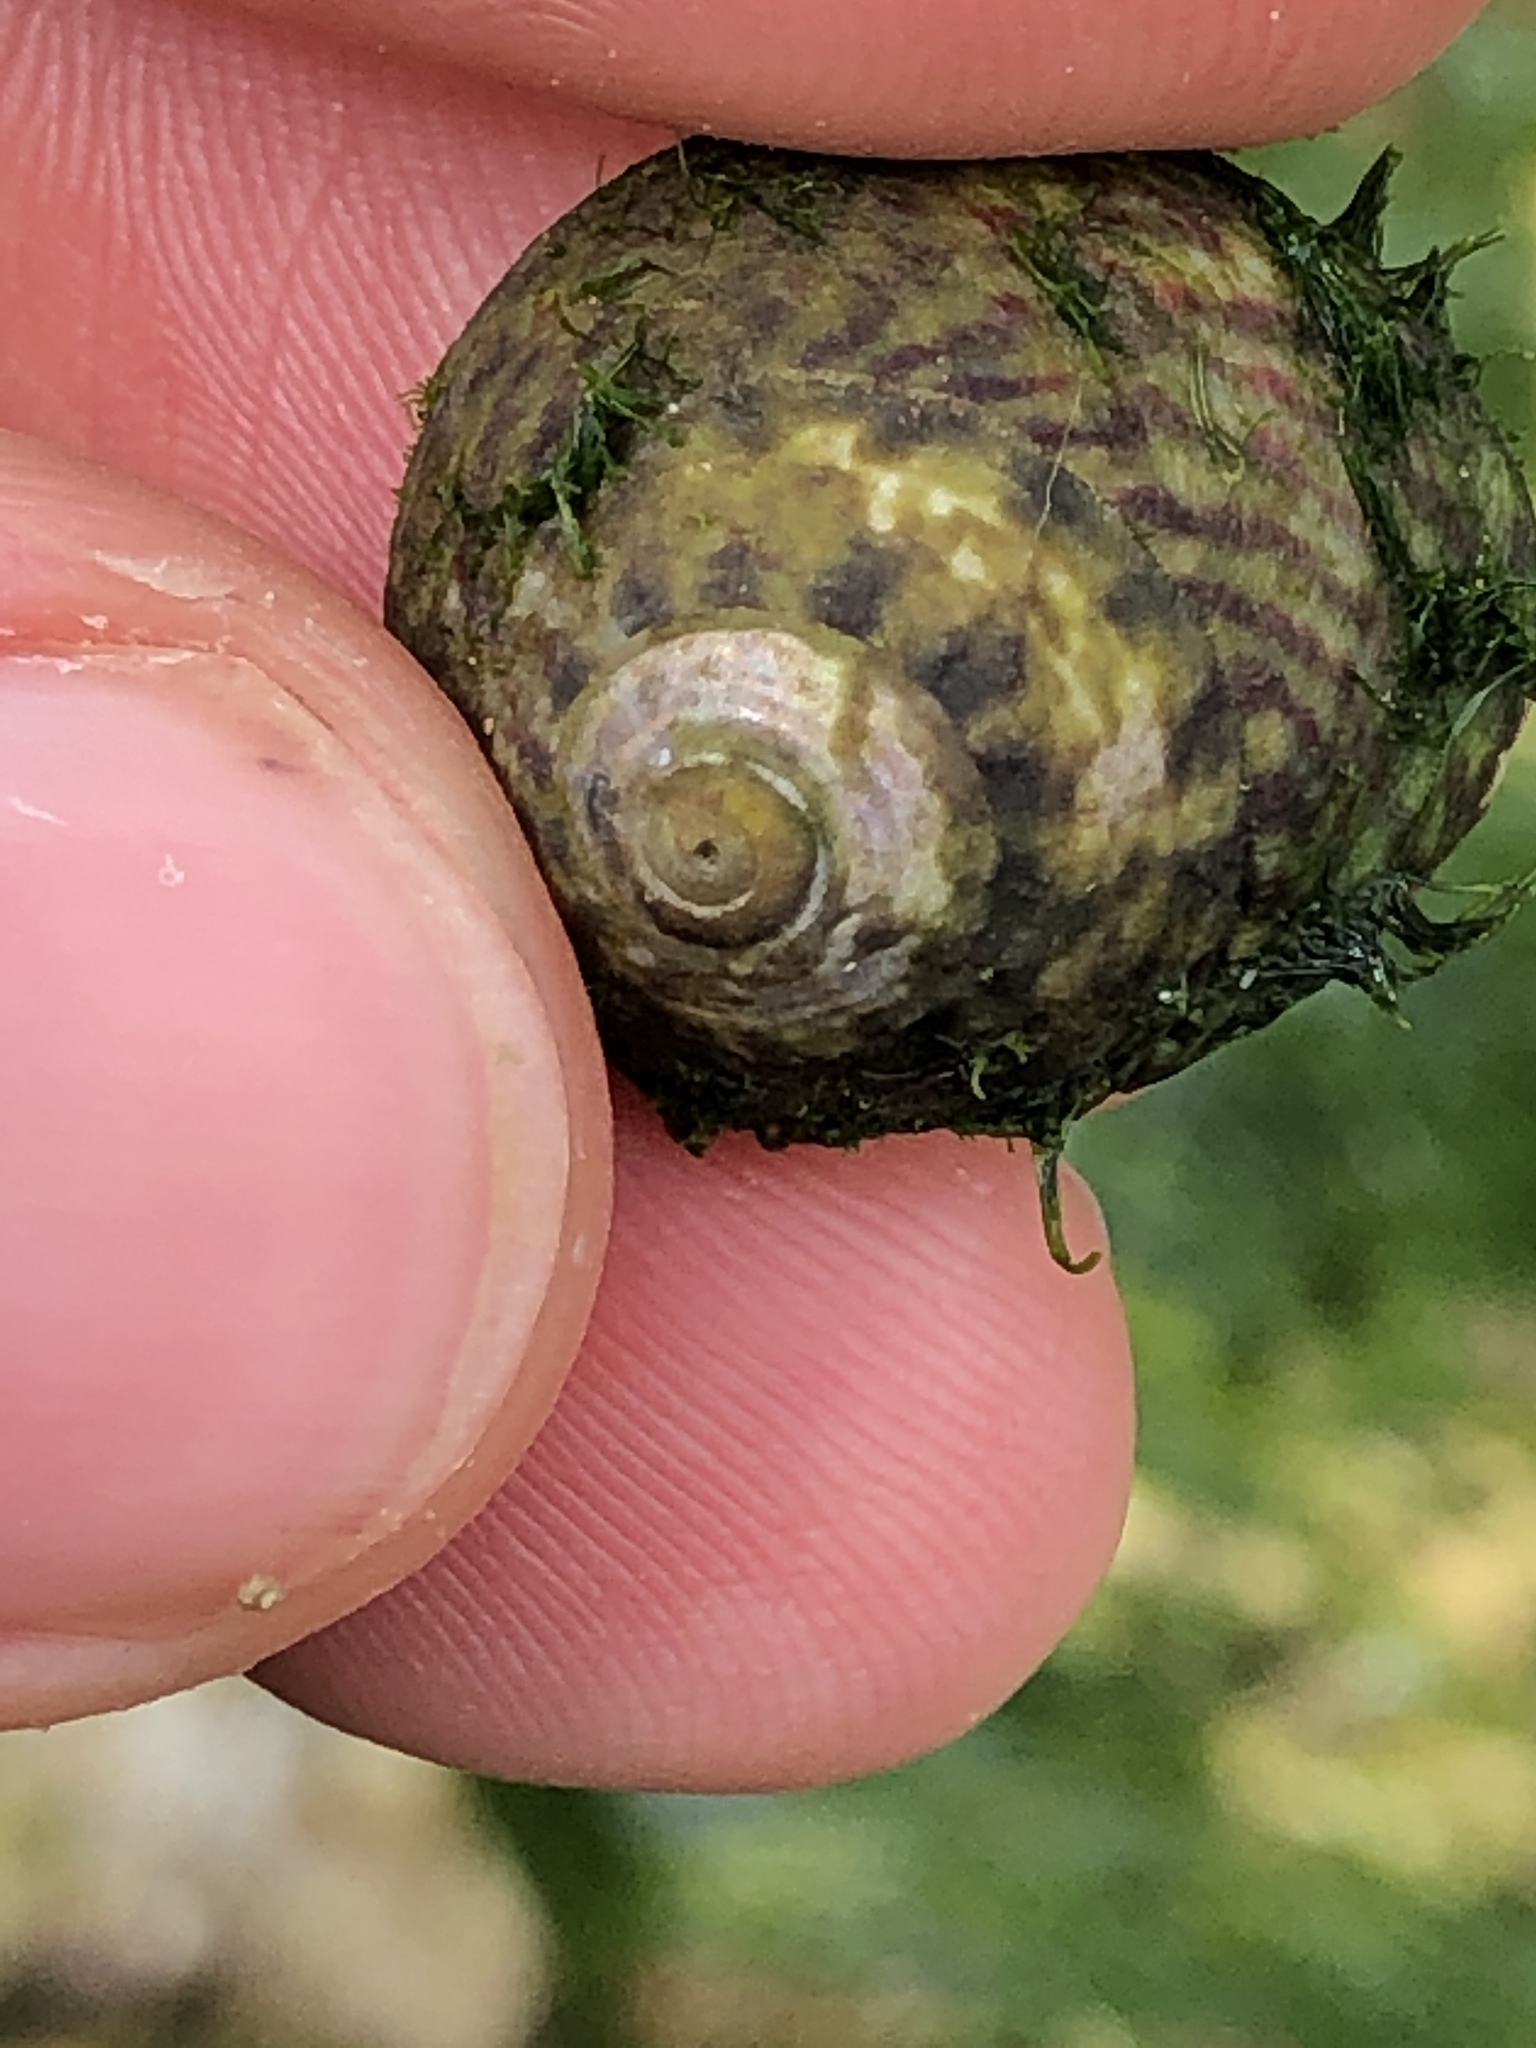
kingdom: Animalia
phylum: Mollusca
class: Gastropoda
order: Trochida
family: Trochidae
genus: Steromphala
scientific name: Steromphala umbilicalis
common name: Flat top shell
